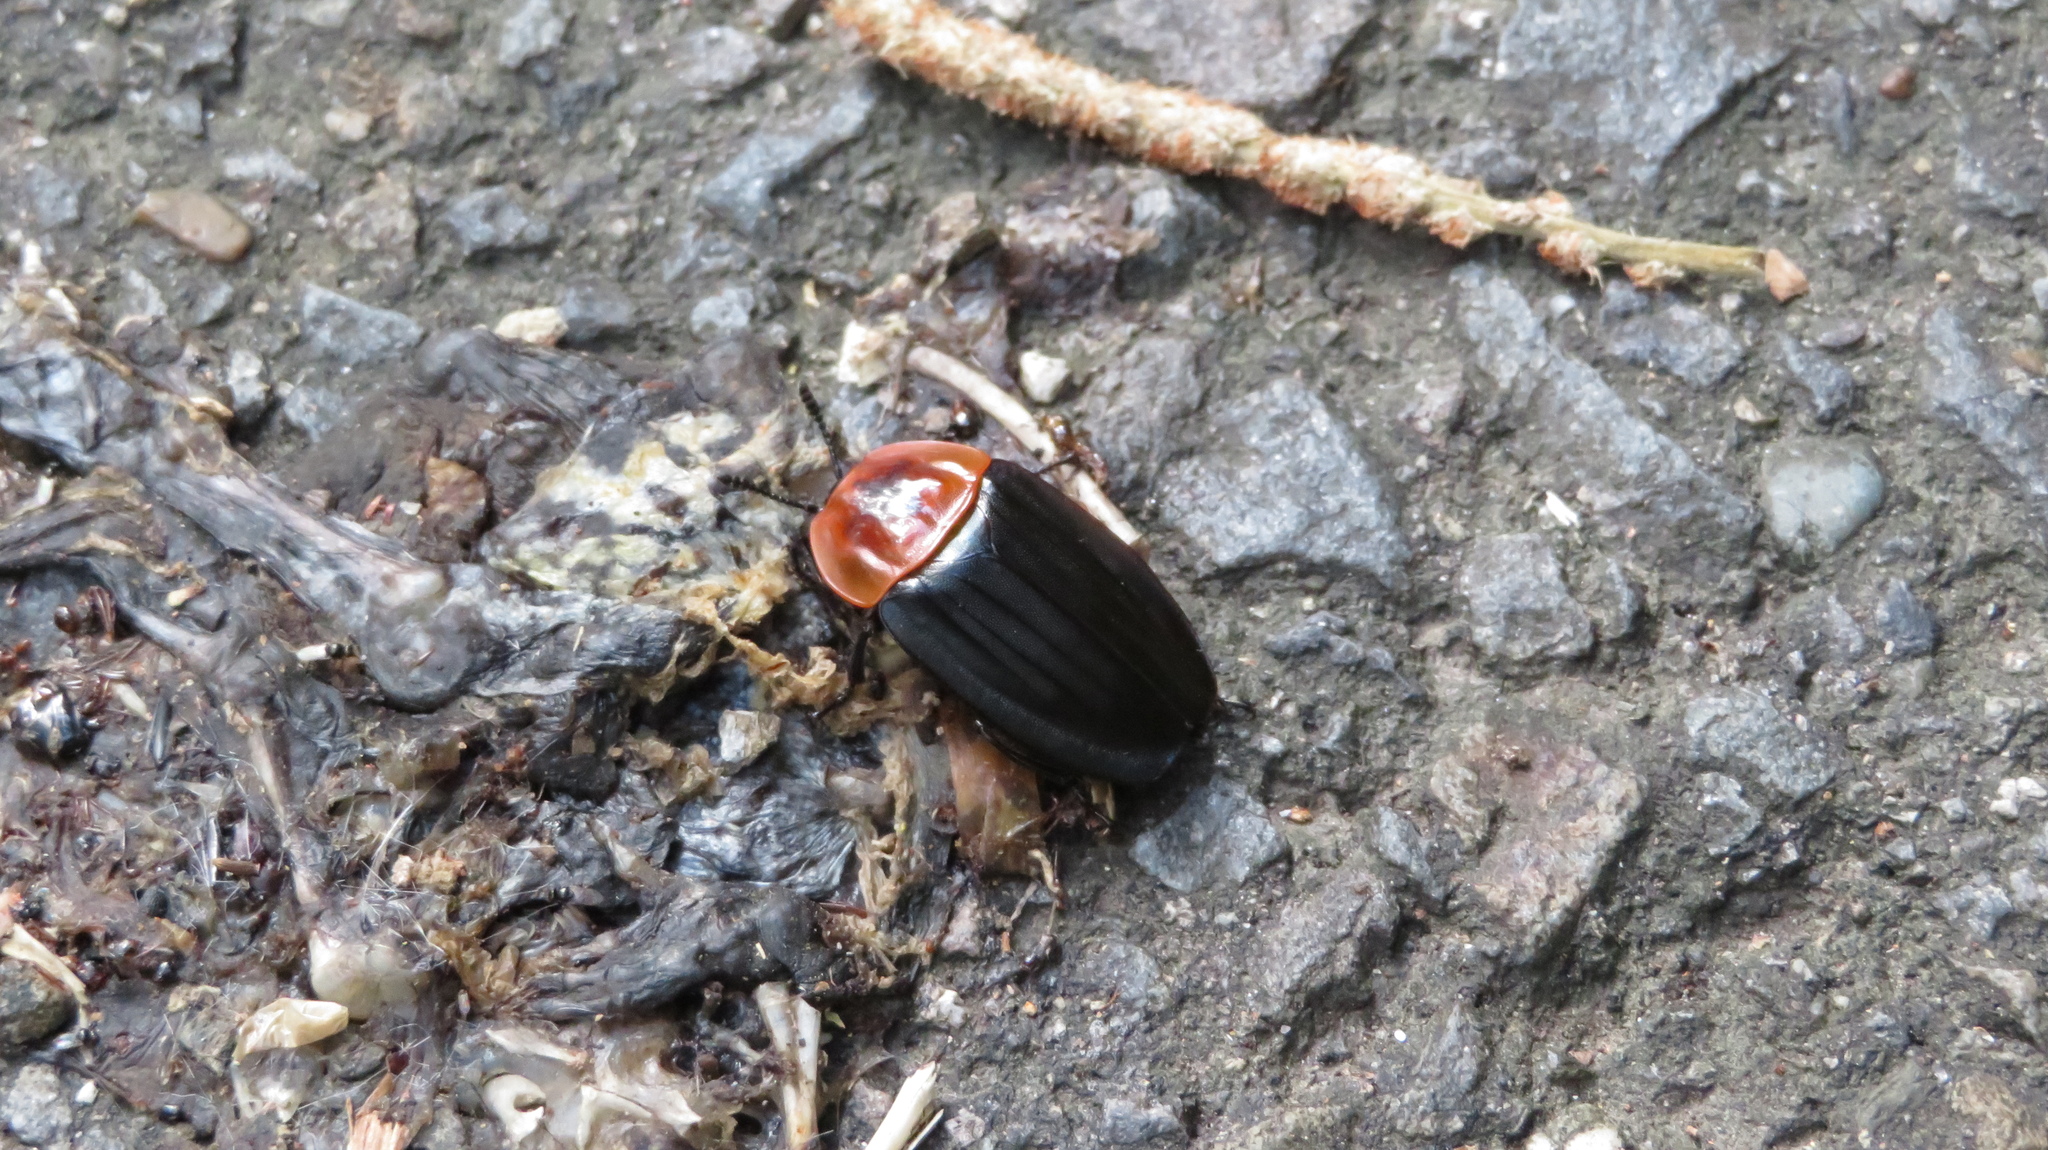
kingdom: Animalia
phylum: Arthropoda
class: Insecta
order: Coleoptera
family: Staphylinidae
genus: Necrophila
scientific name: Necrophila brunnicollis
